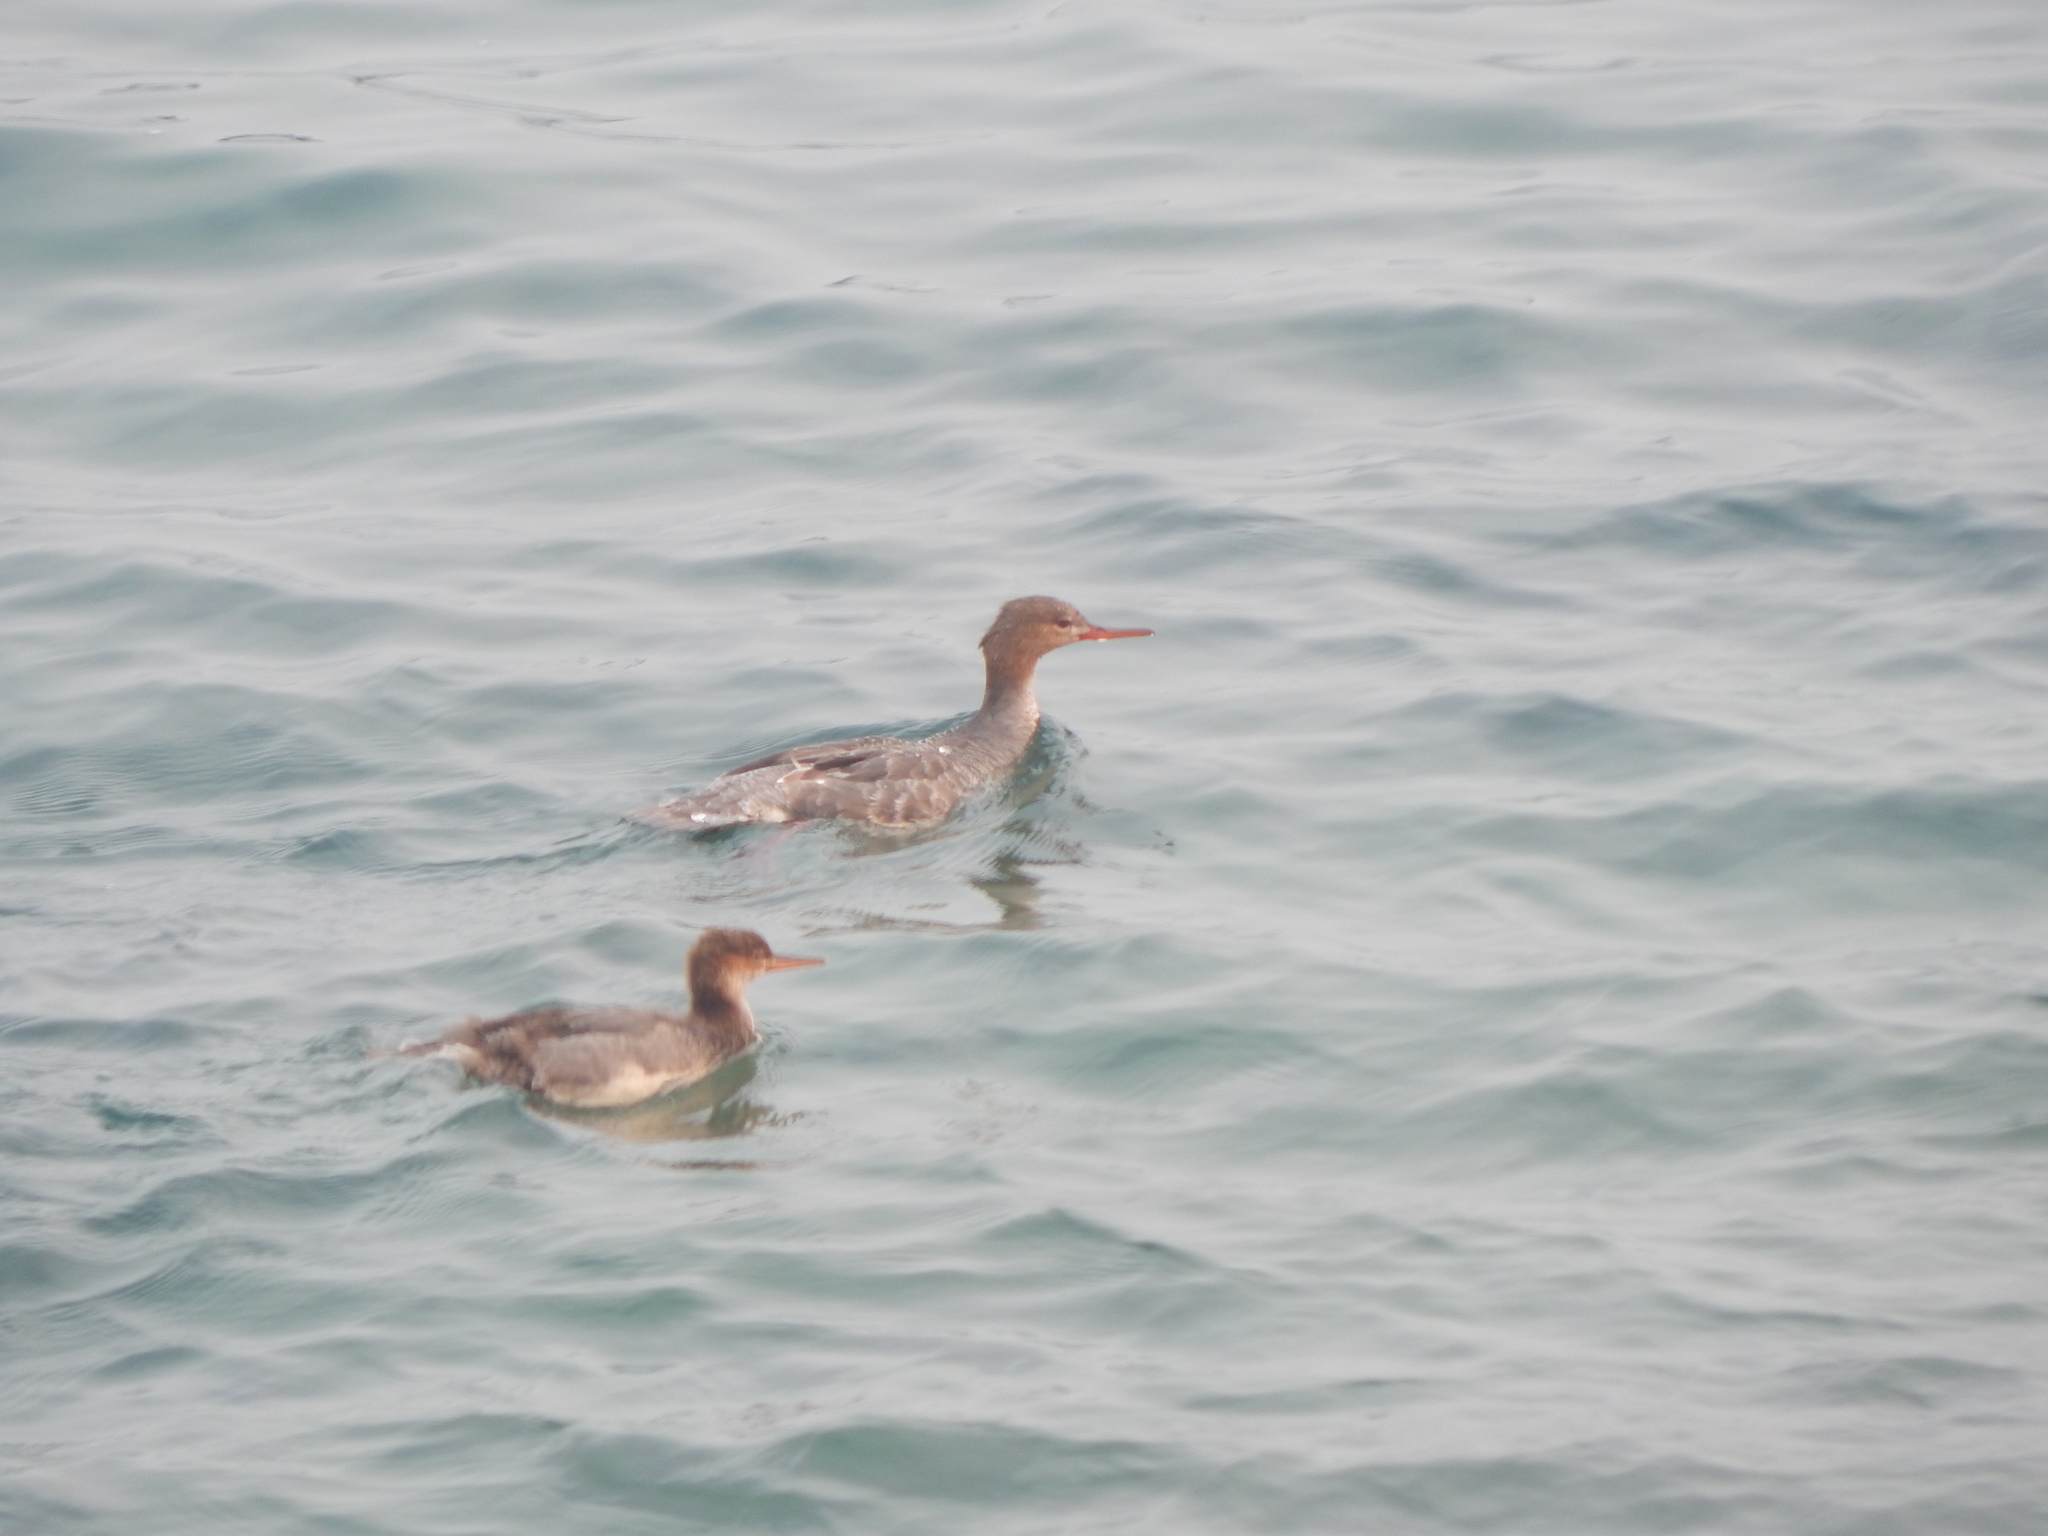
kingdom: Animalia
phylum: Chordata
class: Aves
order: Anseriformes
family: Anatidae
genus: Mergus
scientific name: Mergus serrator
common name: Red-breasted merganser
